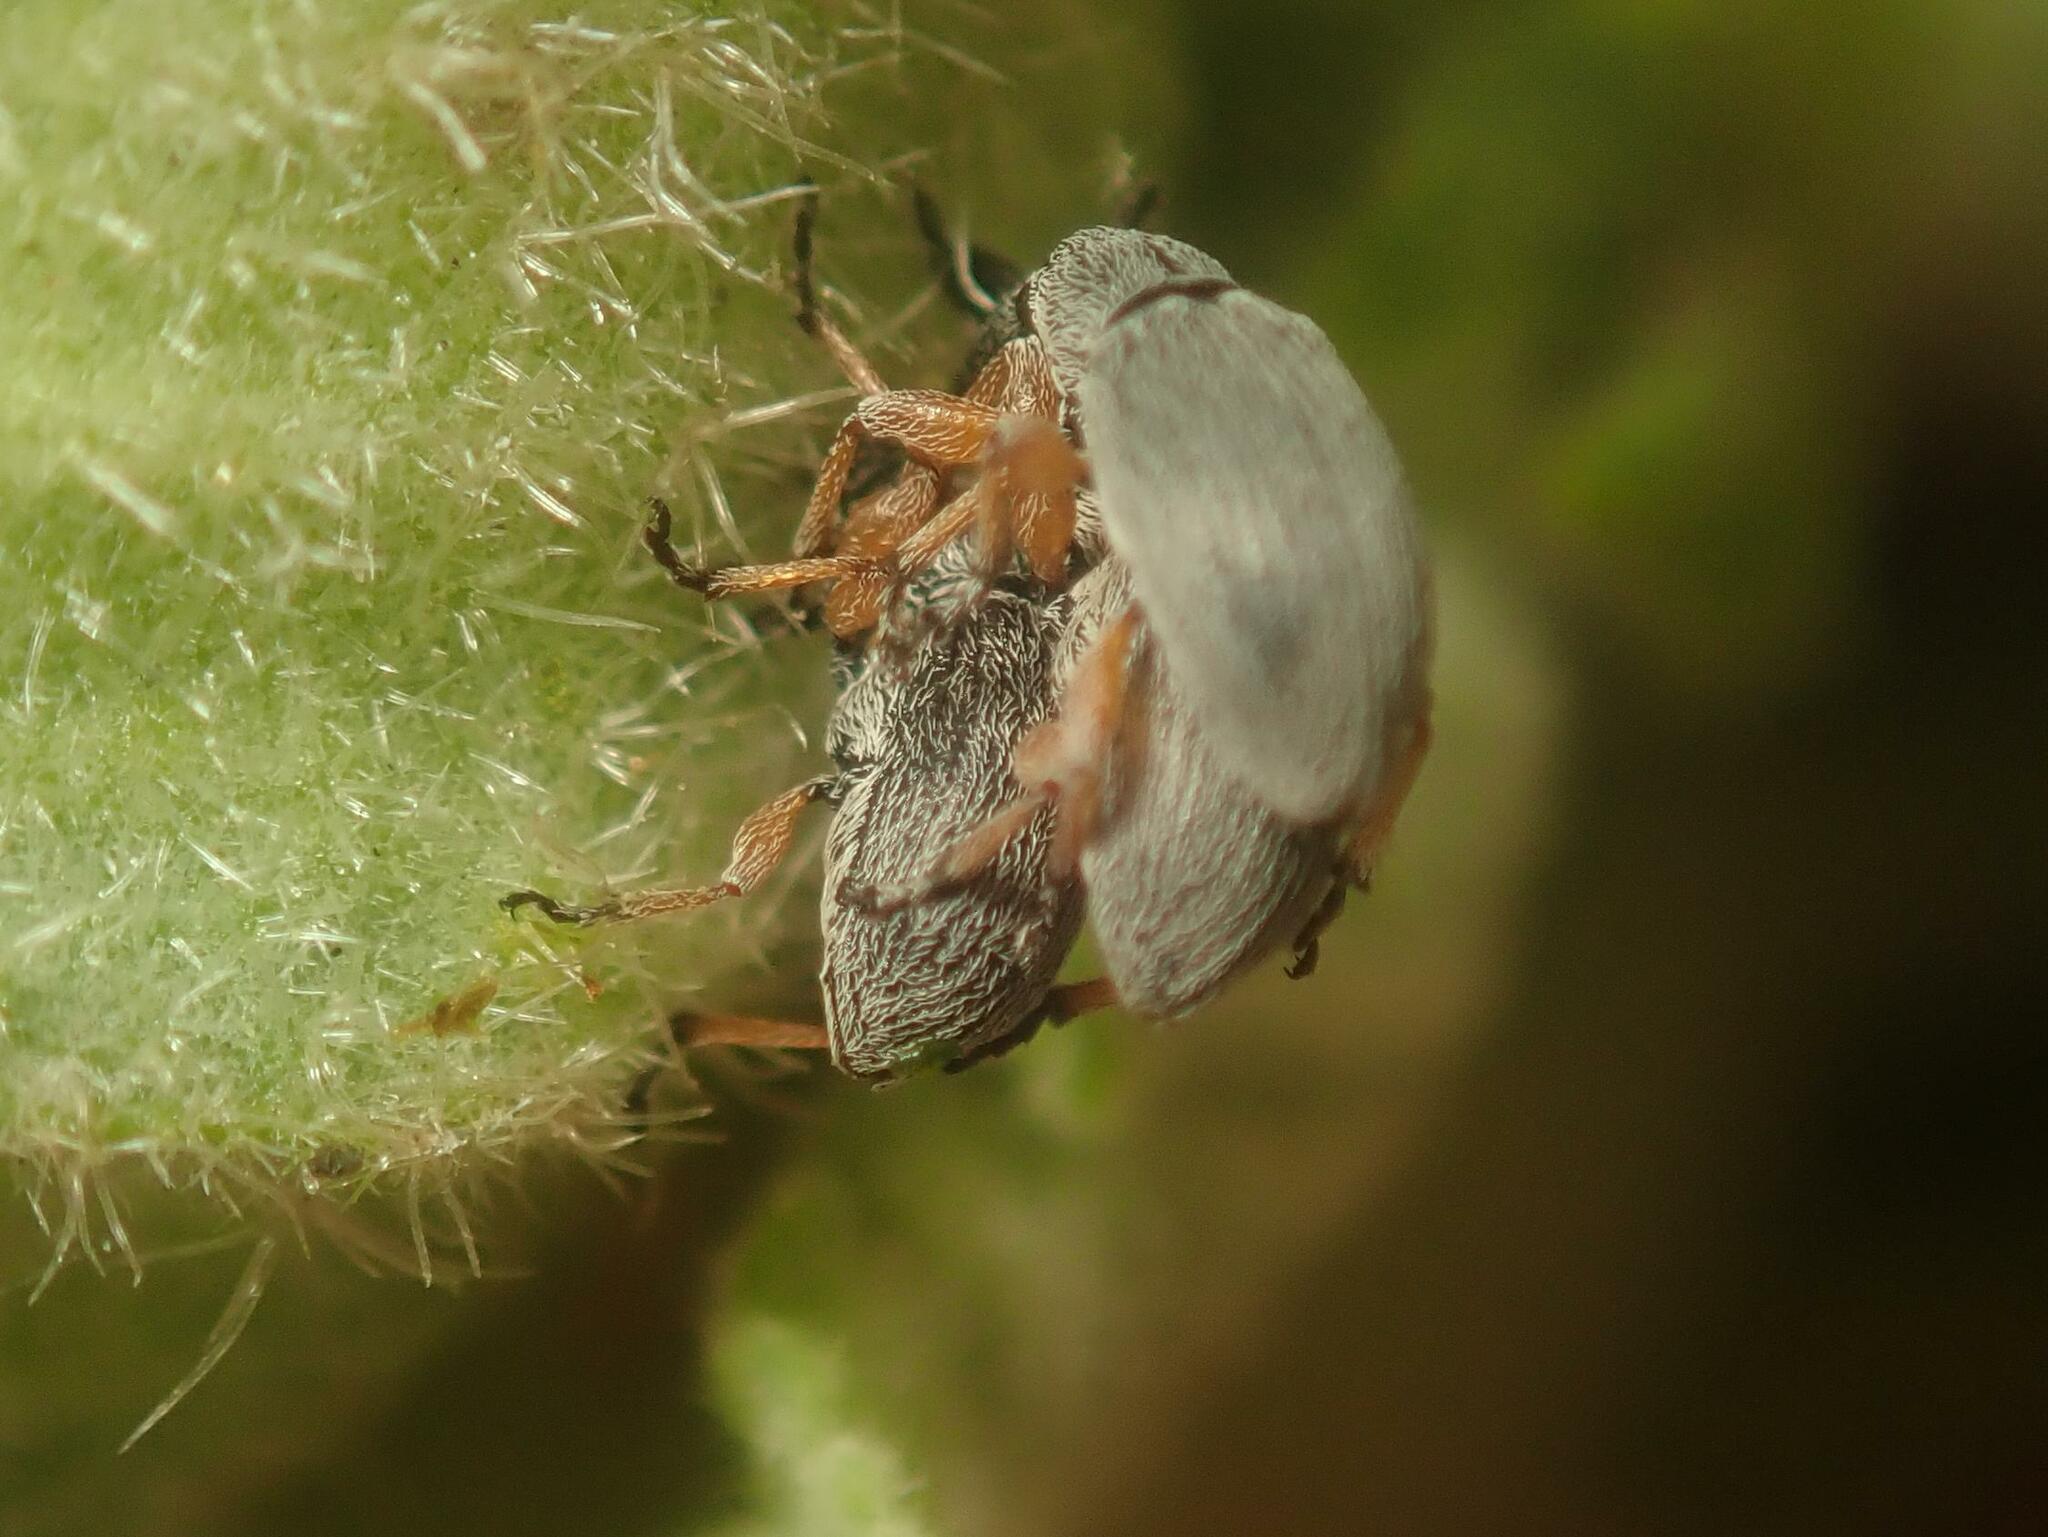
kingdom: Animalia
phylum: Arthropoda
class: Insecta
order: Coleoptera
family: Brentidae
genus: Rhopalapion
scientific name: Rhopalapion longirostre
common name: Hollyhock weevil
